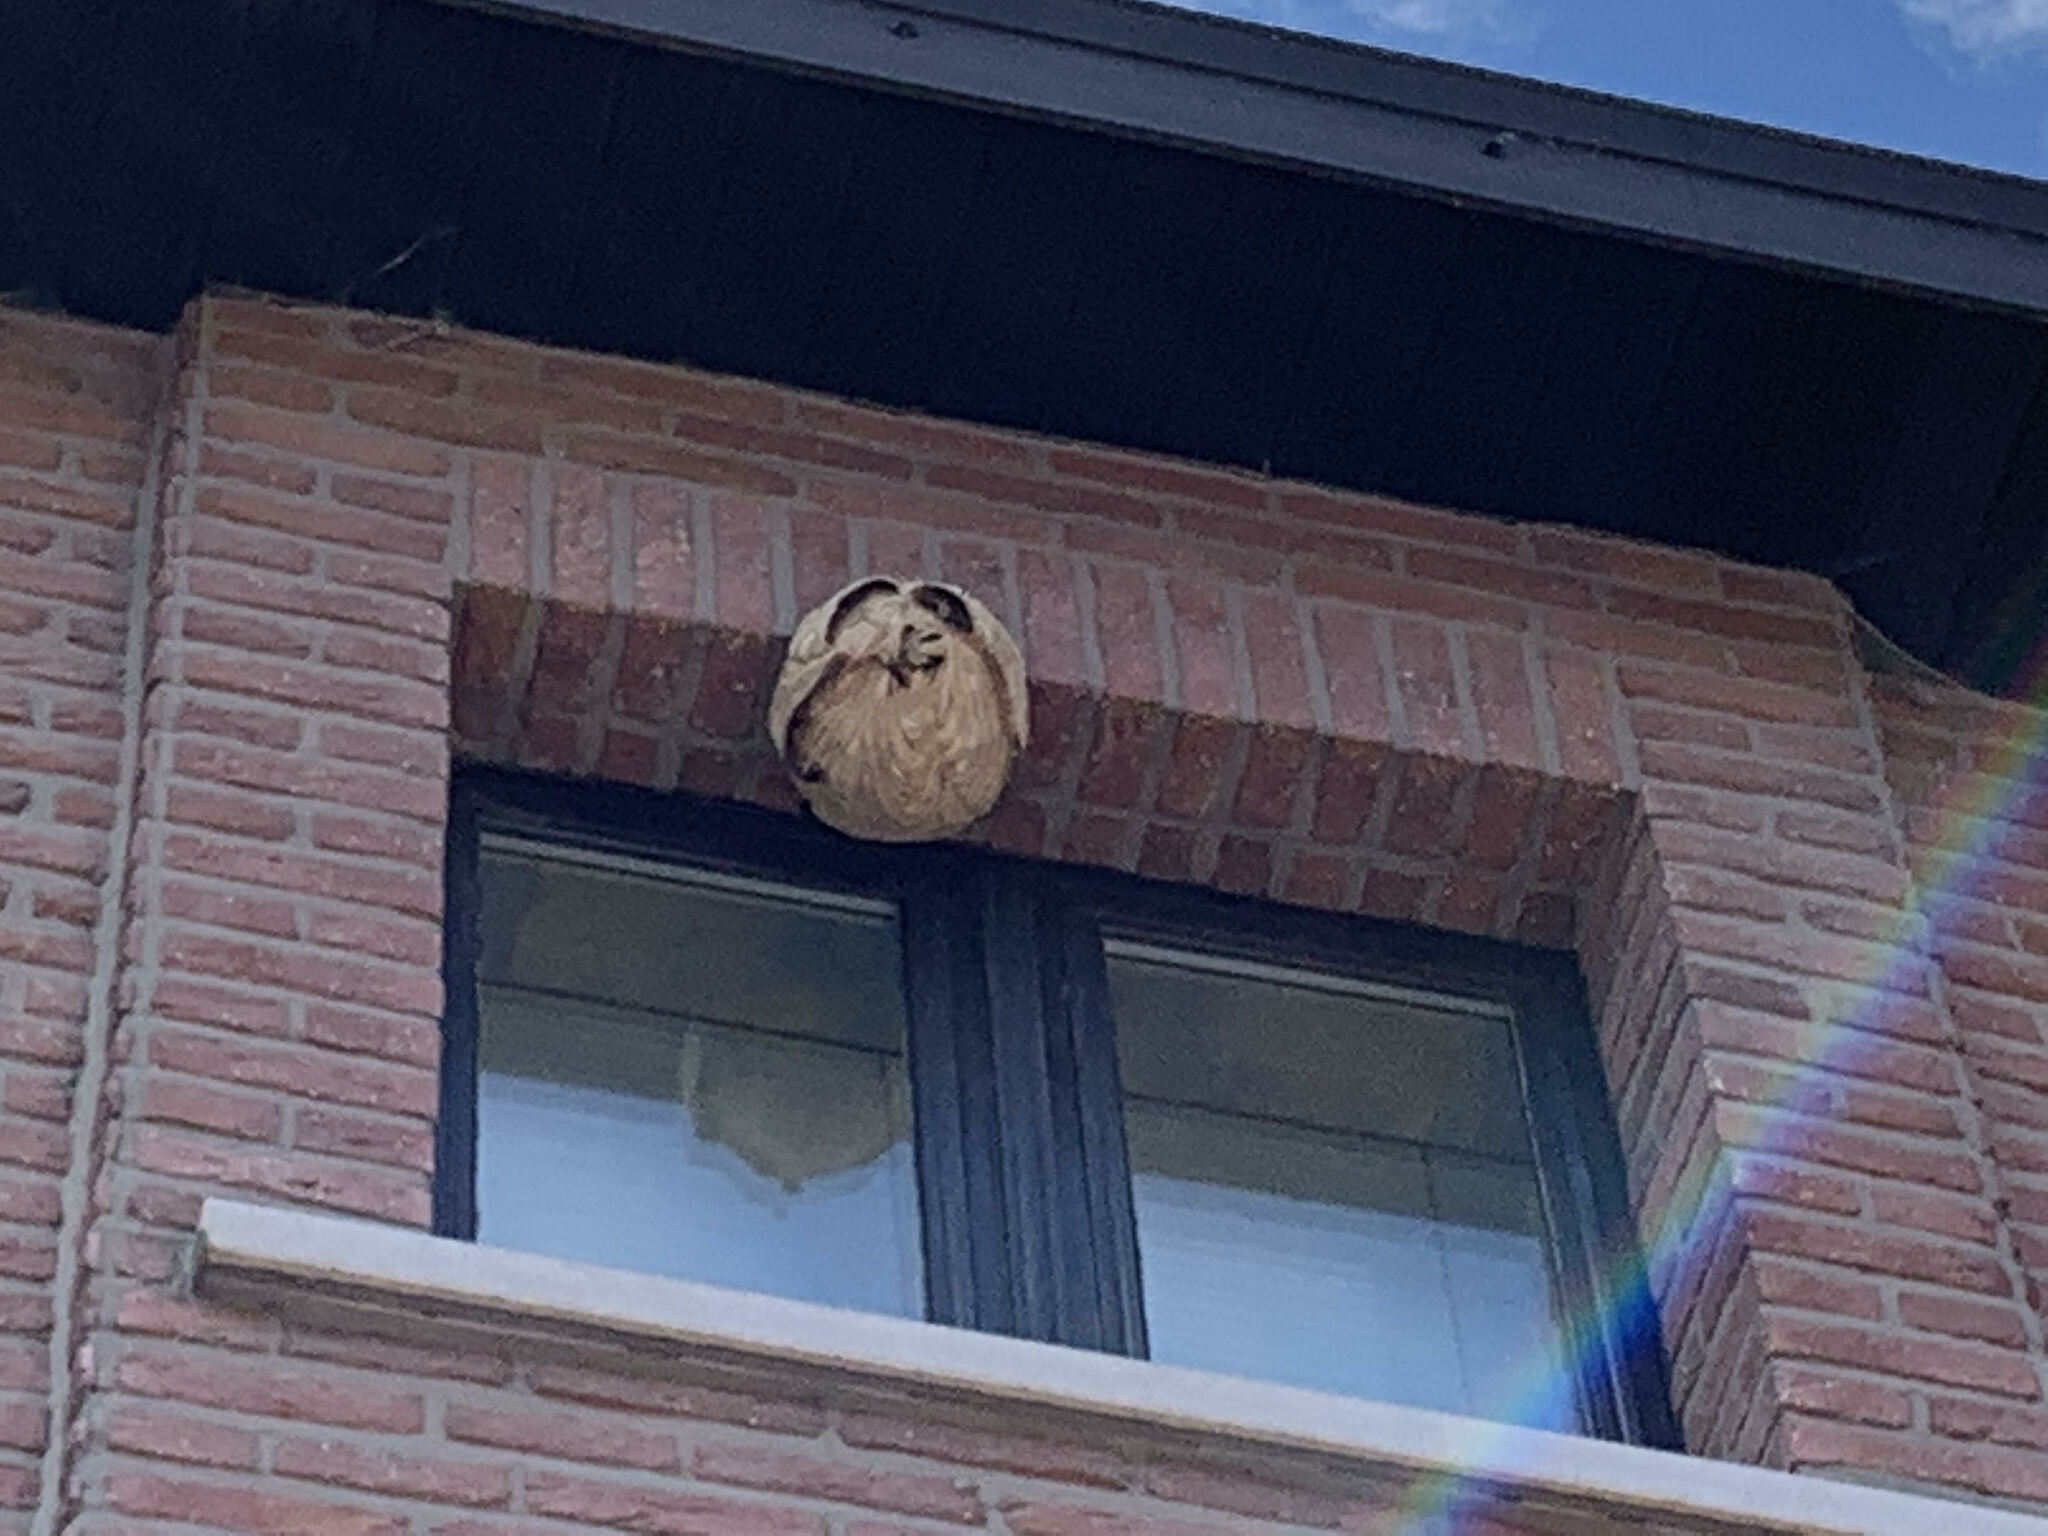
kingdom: Animalia
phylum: Arthropoda
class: Insecta
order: Hymenoptera
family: Vespidae
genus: Vespa
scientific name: Vespa velutina
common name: Asian hornet
